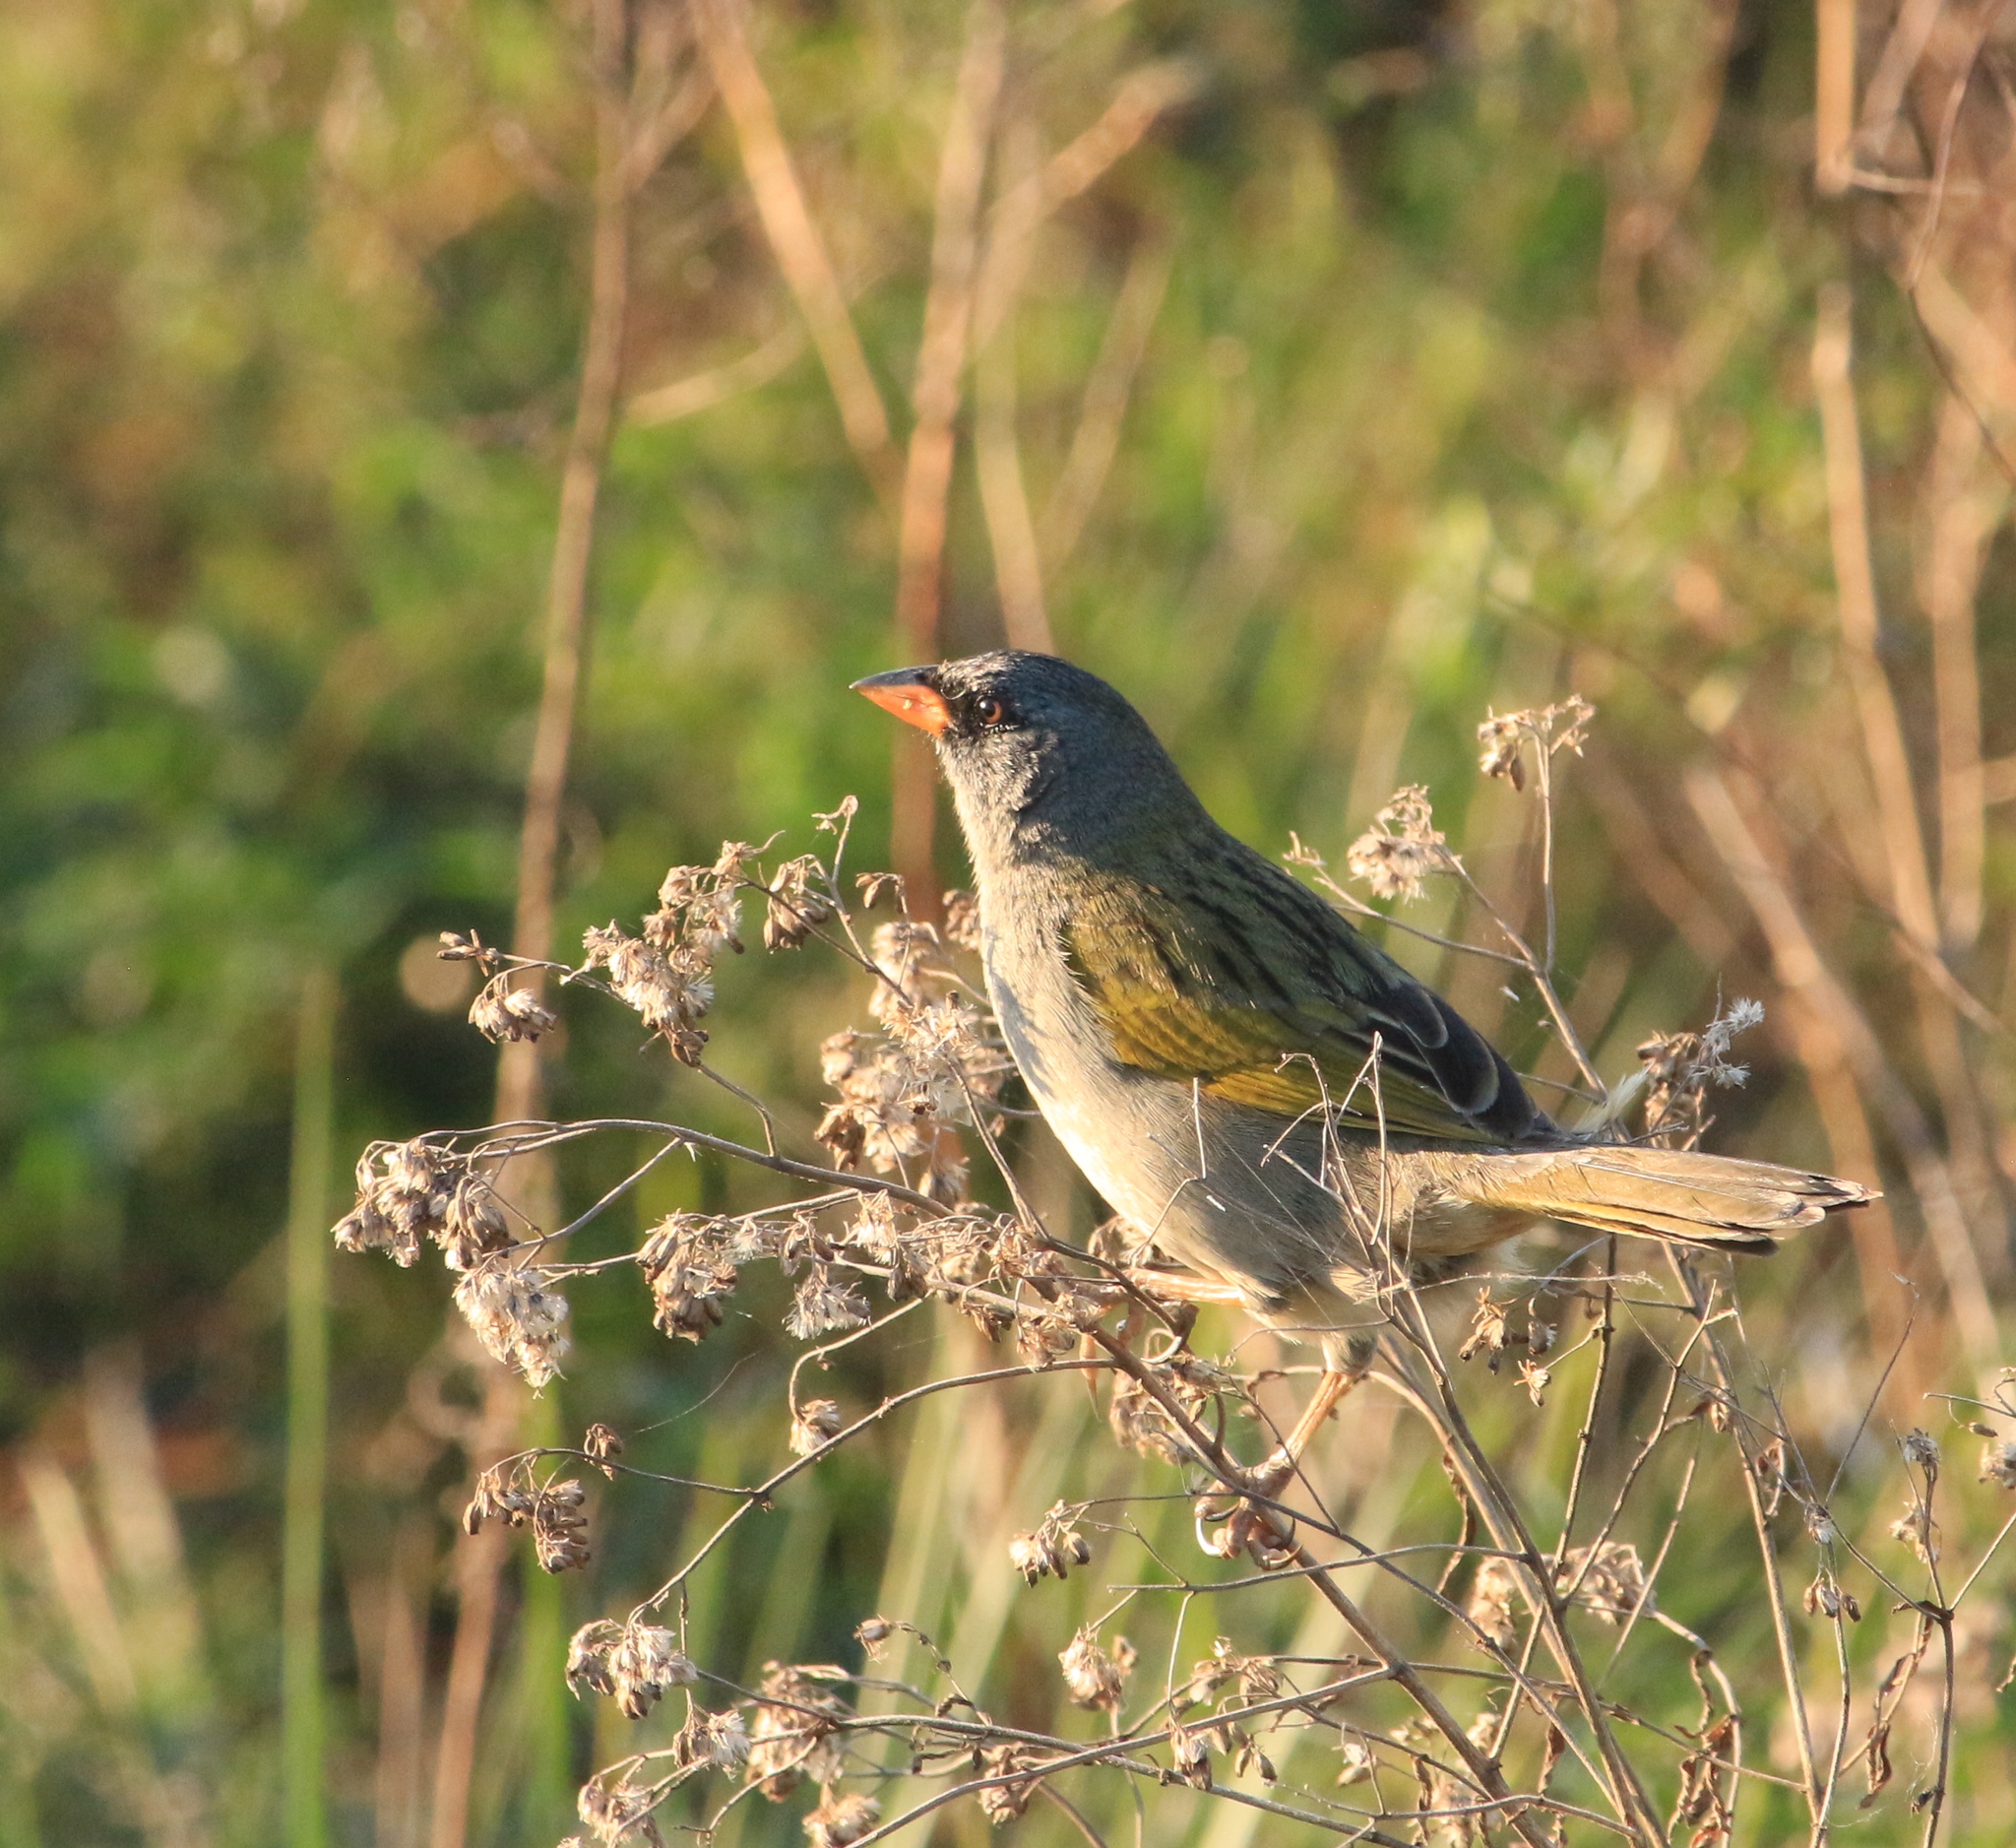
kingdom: Animalia
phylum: Chordata
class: Aves
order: Passeriformes
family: Thraupidae
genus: Embernagra
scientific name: Embernagra platensis
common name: Pampa finch
